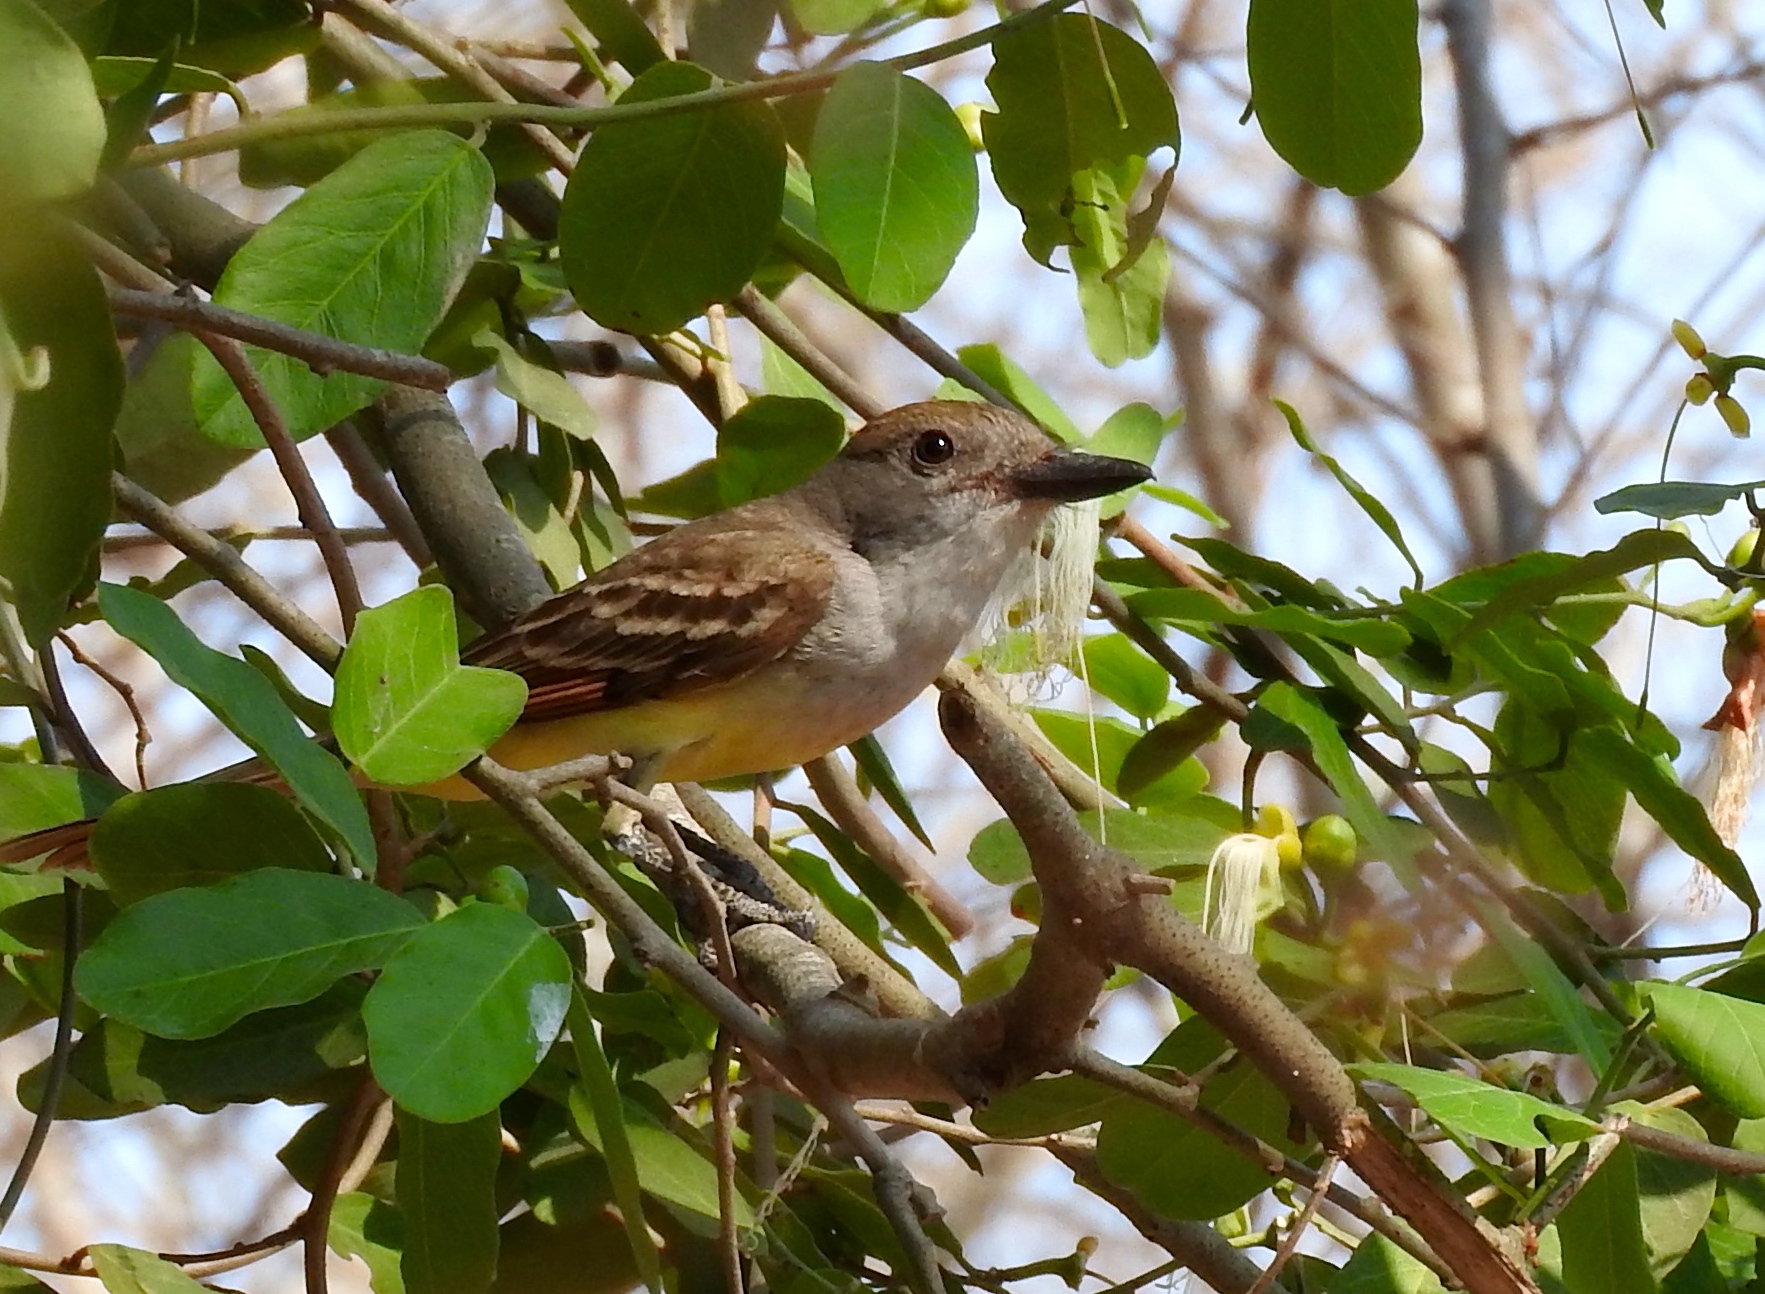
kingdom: Animalia
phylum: Chordata
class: Aves
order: Passeriformes
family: Tyrannidae
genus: Myiarchus
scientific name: Myiarchus
